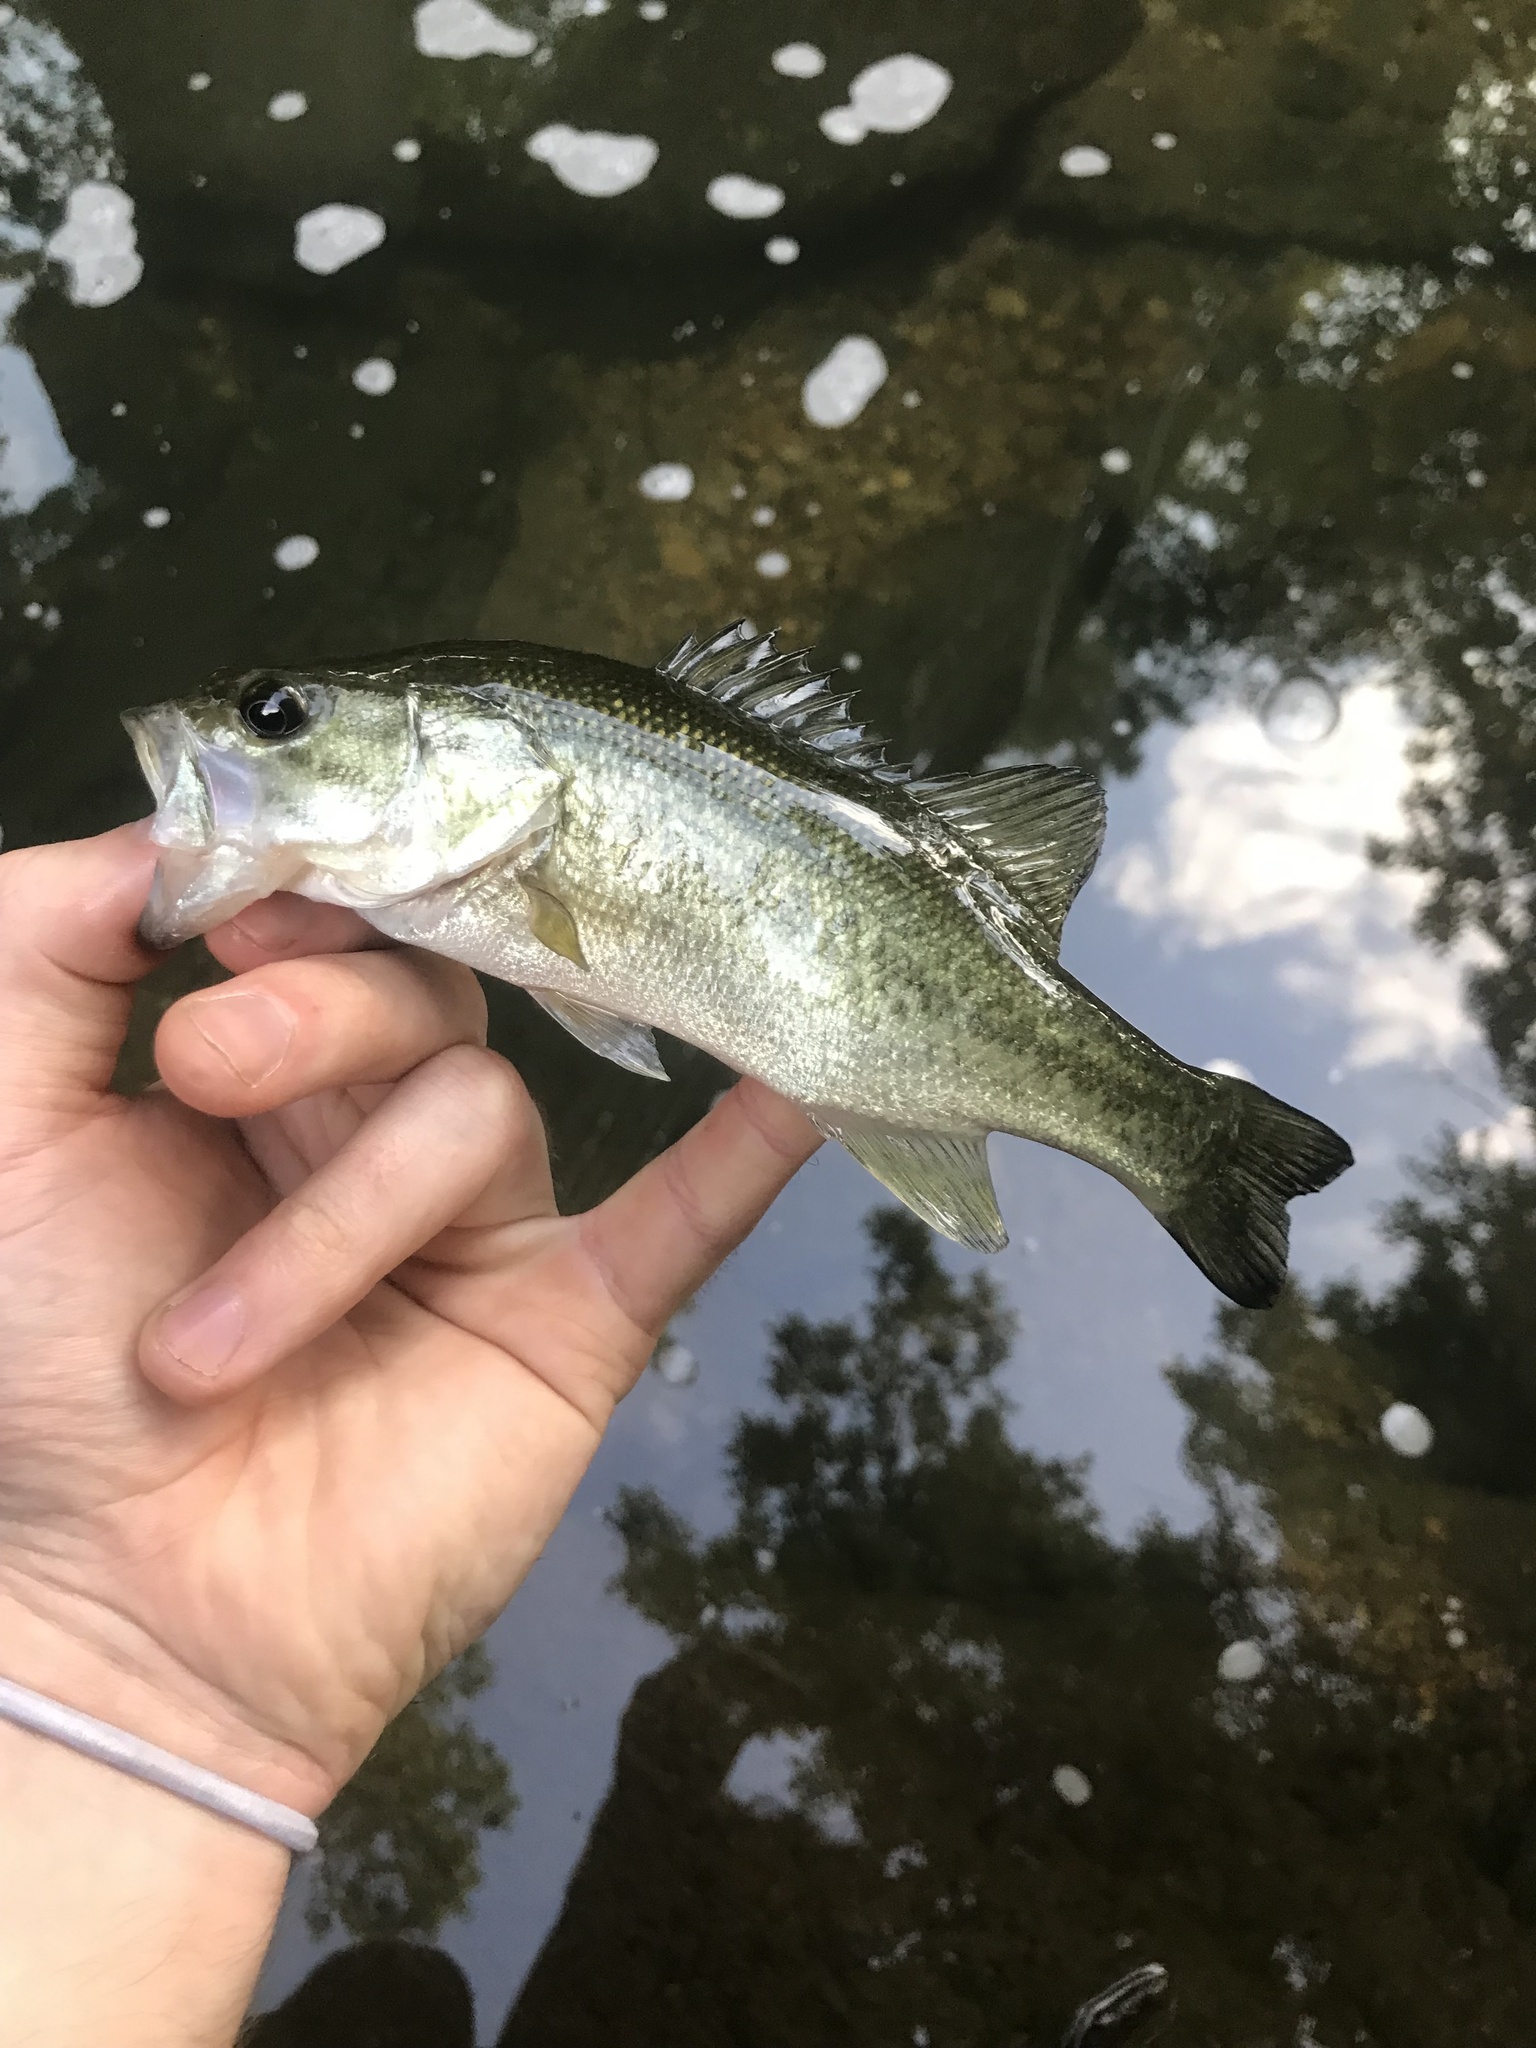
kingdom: Animalia
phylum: Chordata
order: Perciformes
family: Centrarchidae
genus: Micropterus
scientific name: Micropterus
